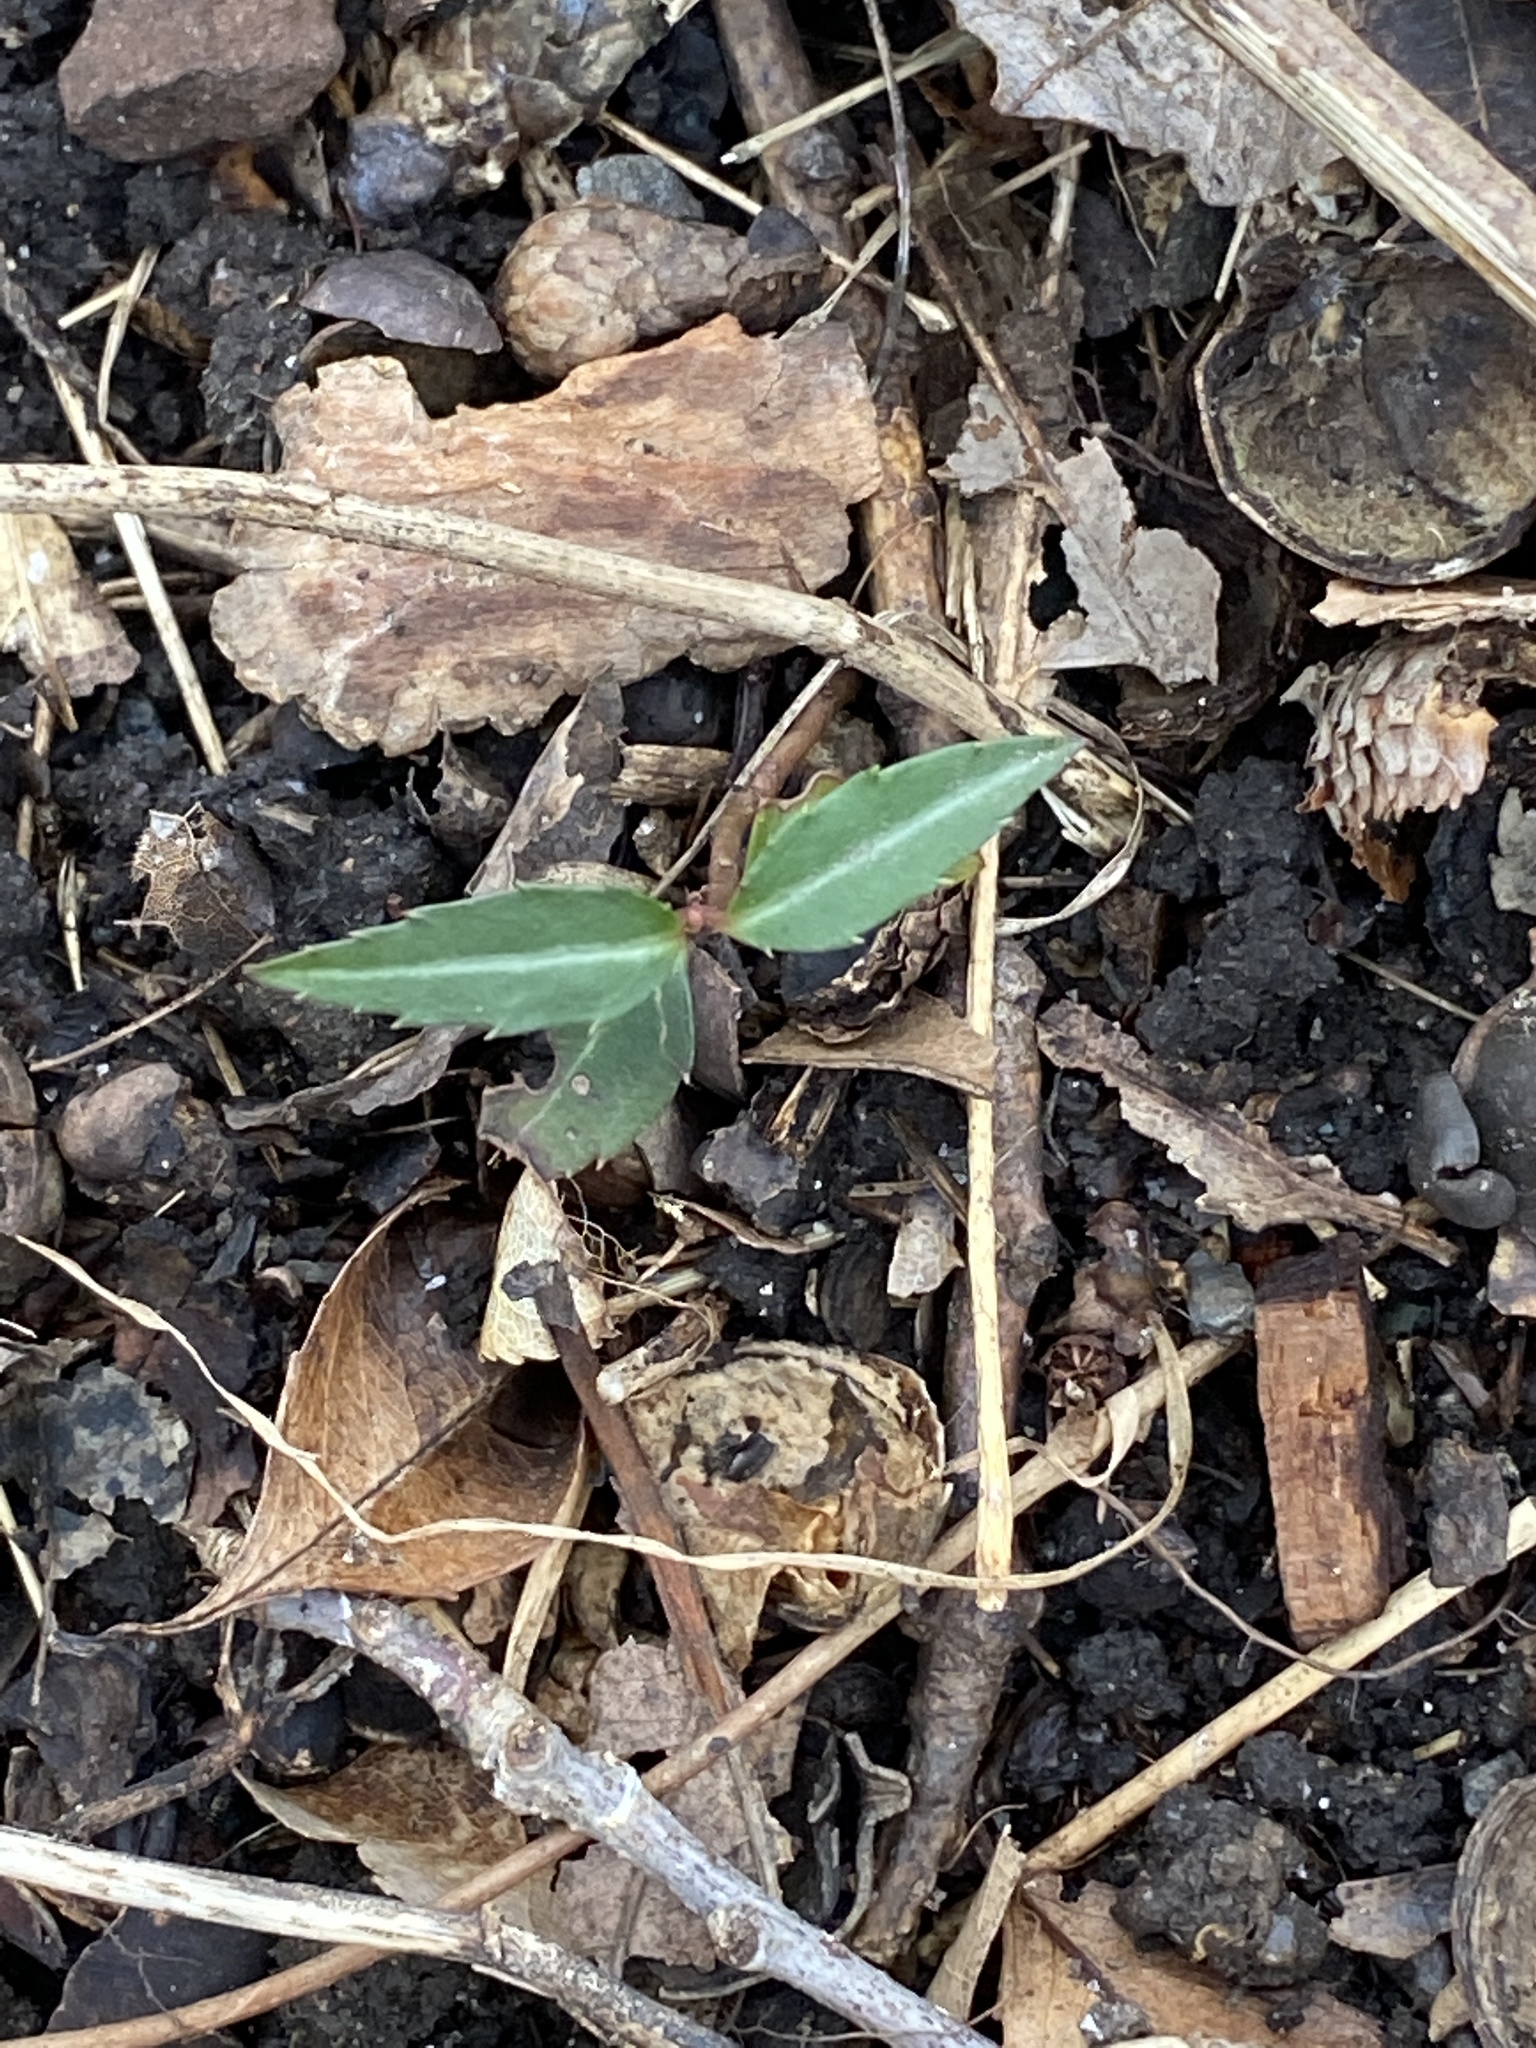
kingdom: Plantae
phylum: Tracheophyta
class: Magnoliopsida
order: Ericales
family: Ericaceae
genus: Chimaphila
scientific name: Chimaphila maculata
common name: Spotted pipsissewa
